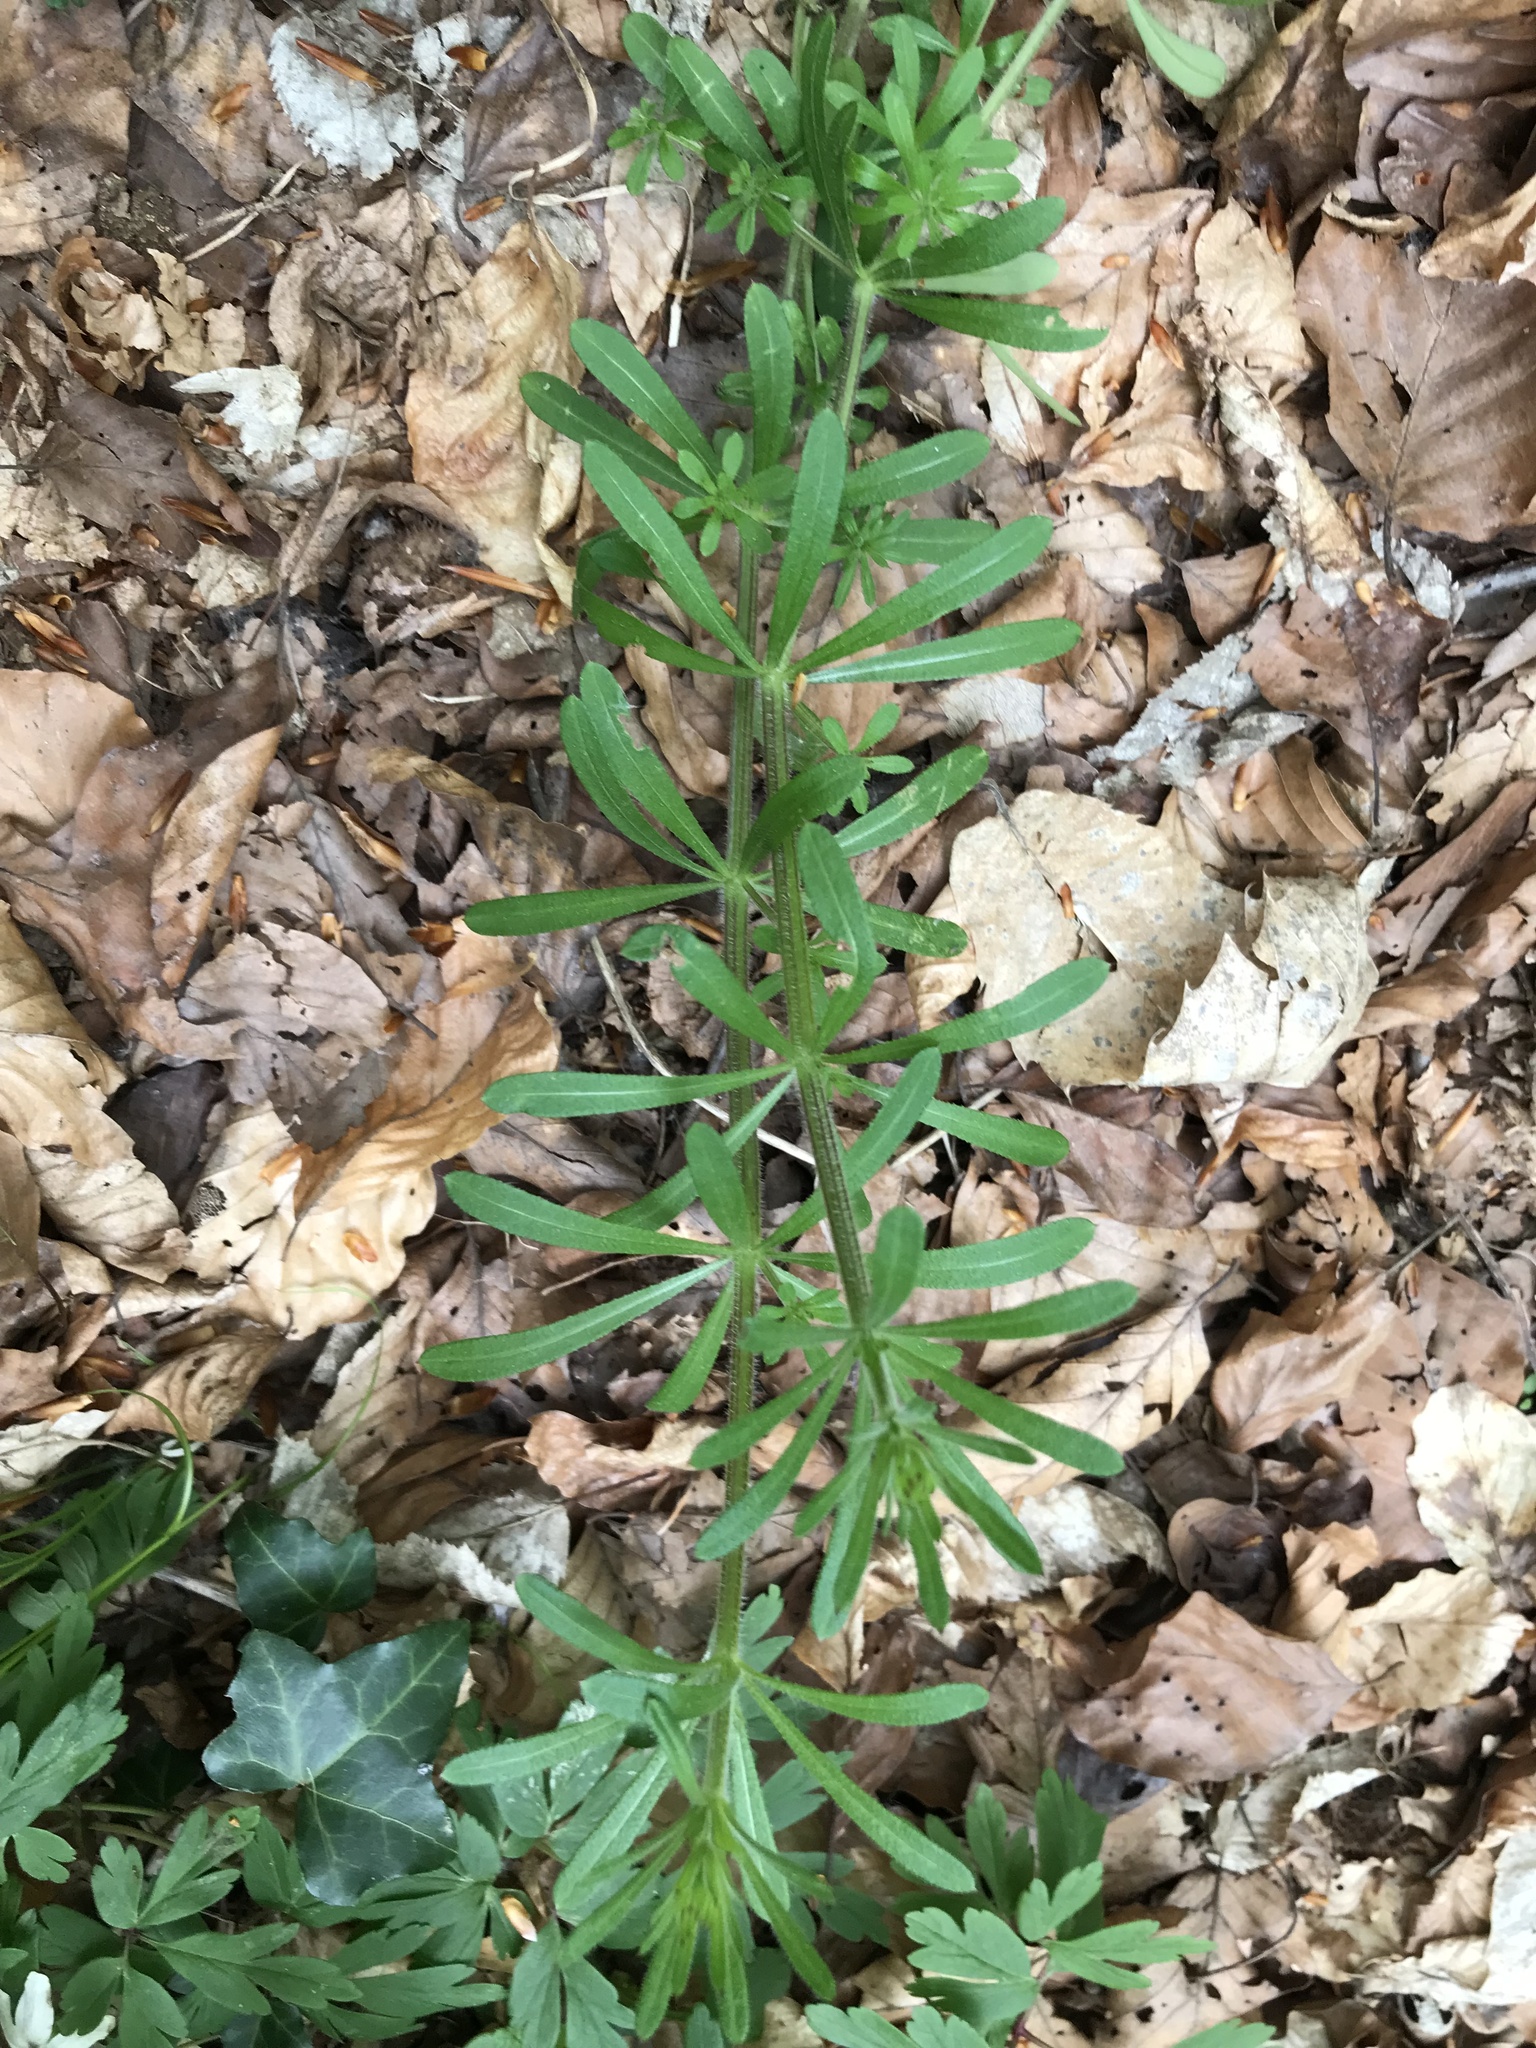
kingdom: Plantae
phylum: Tracheophyta
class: Magnoliopsida
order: Gentianales
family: Rubiaceae
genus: Galium
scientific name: Galium aparine
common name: Cleavers
